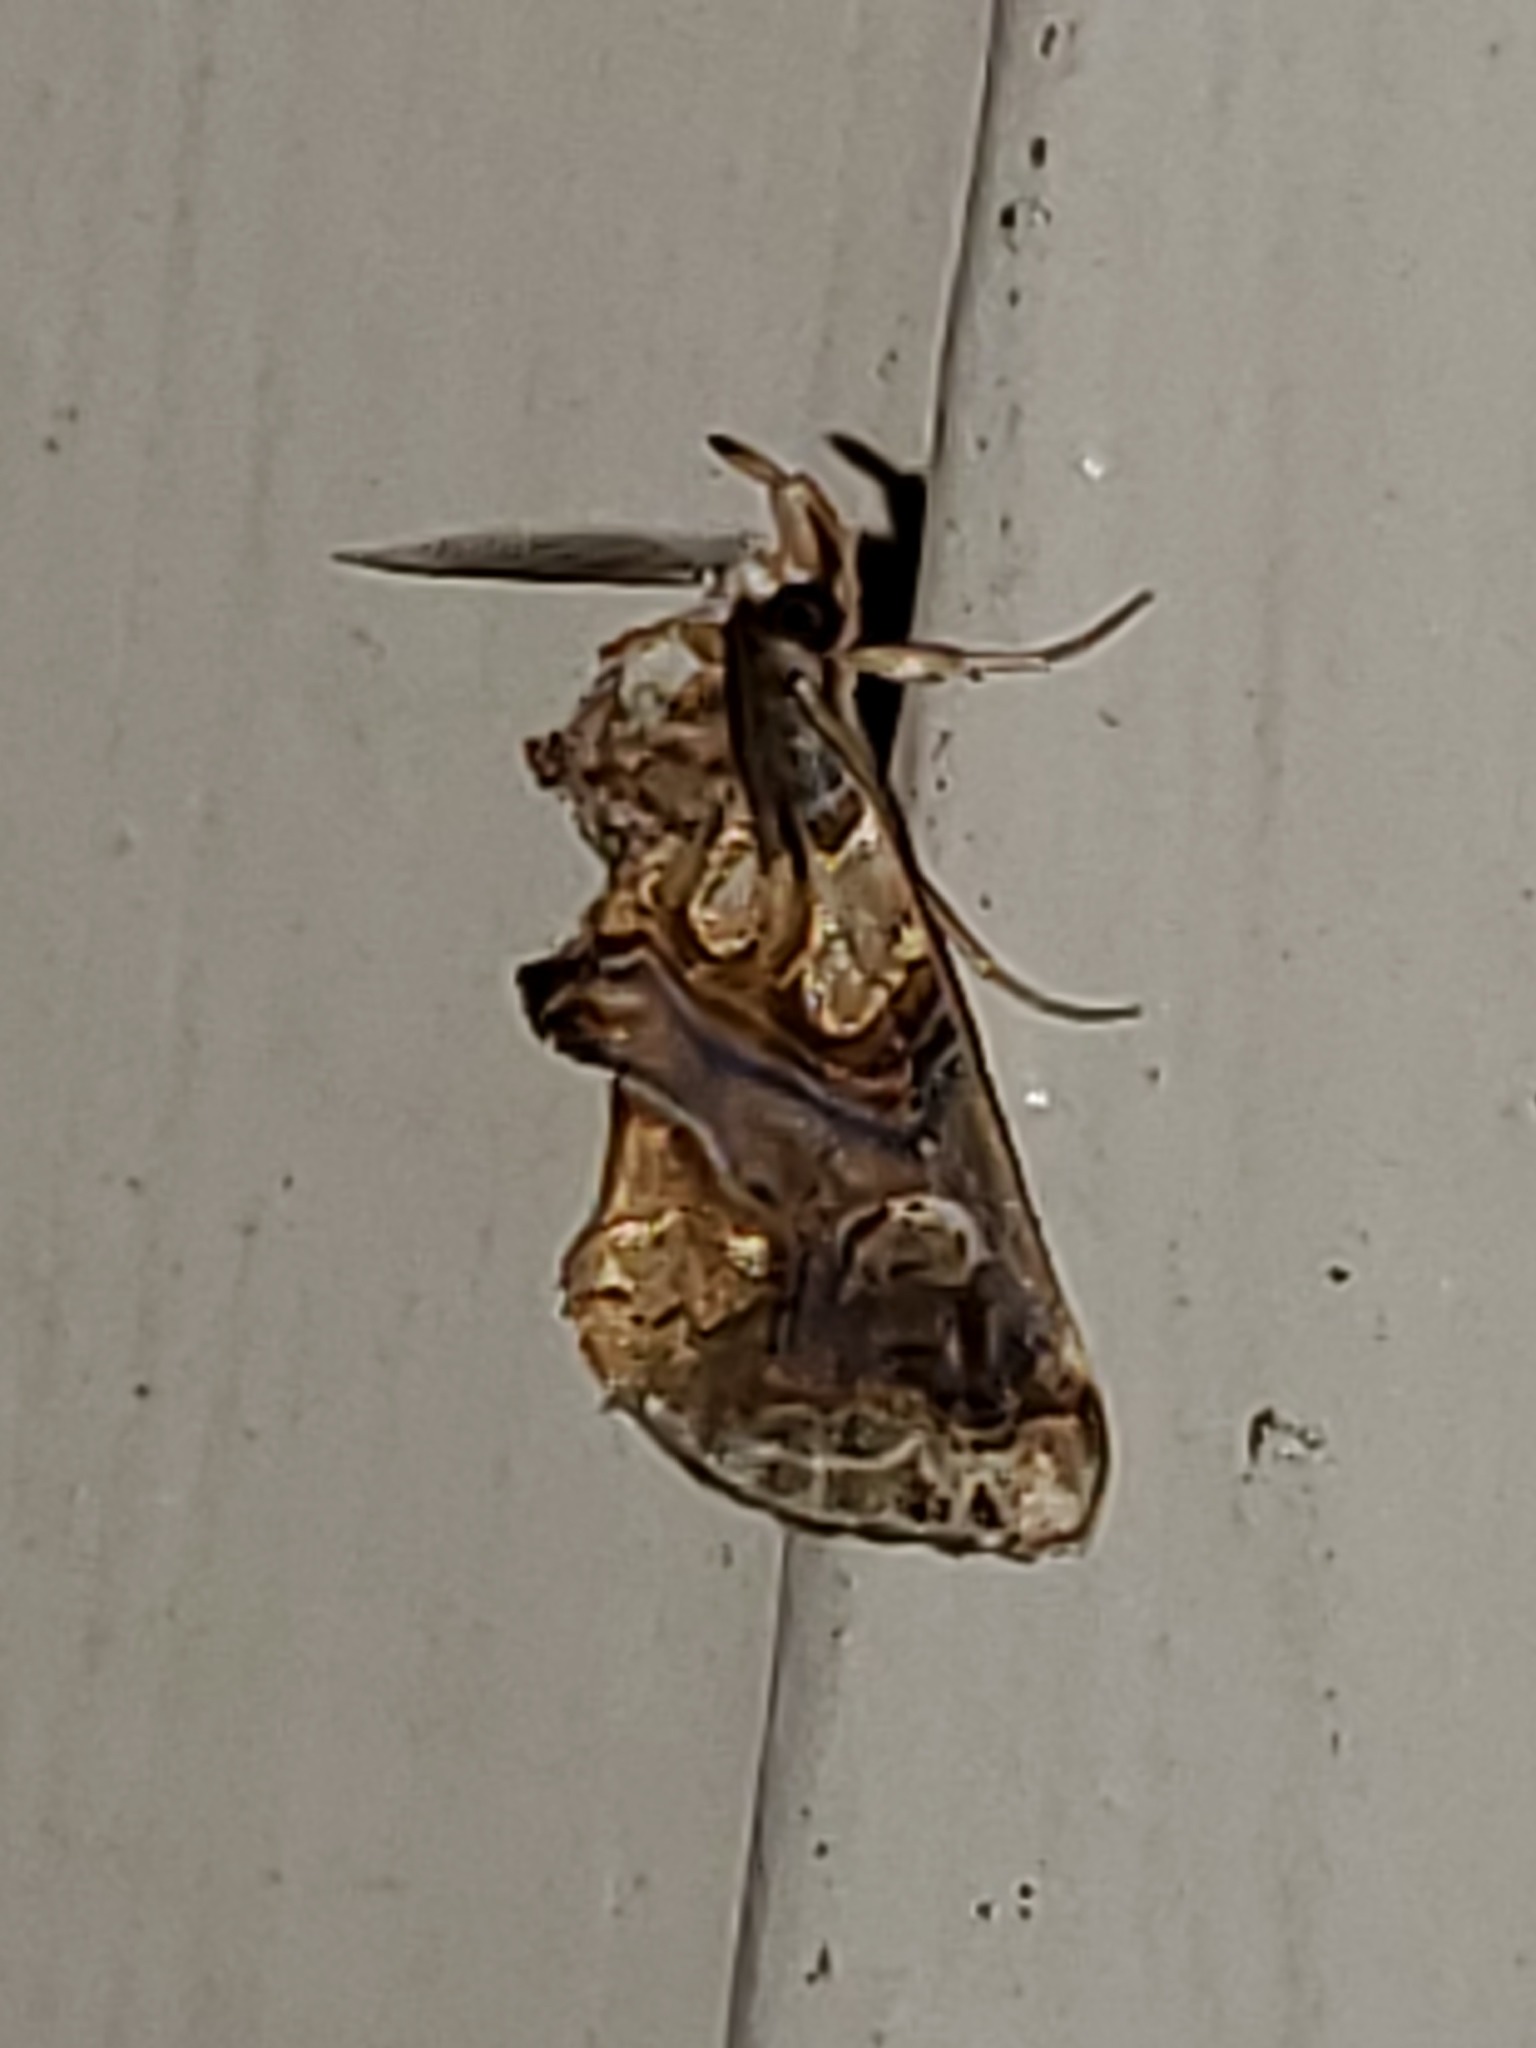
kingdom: Animalia
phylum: Arthropoda
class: Insecta
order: Lepidoptera
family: Erebidae
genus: Plusiodonta
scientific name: Plusiodonta compressipalpis
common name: Moonseed moth
